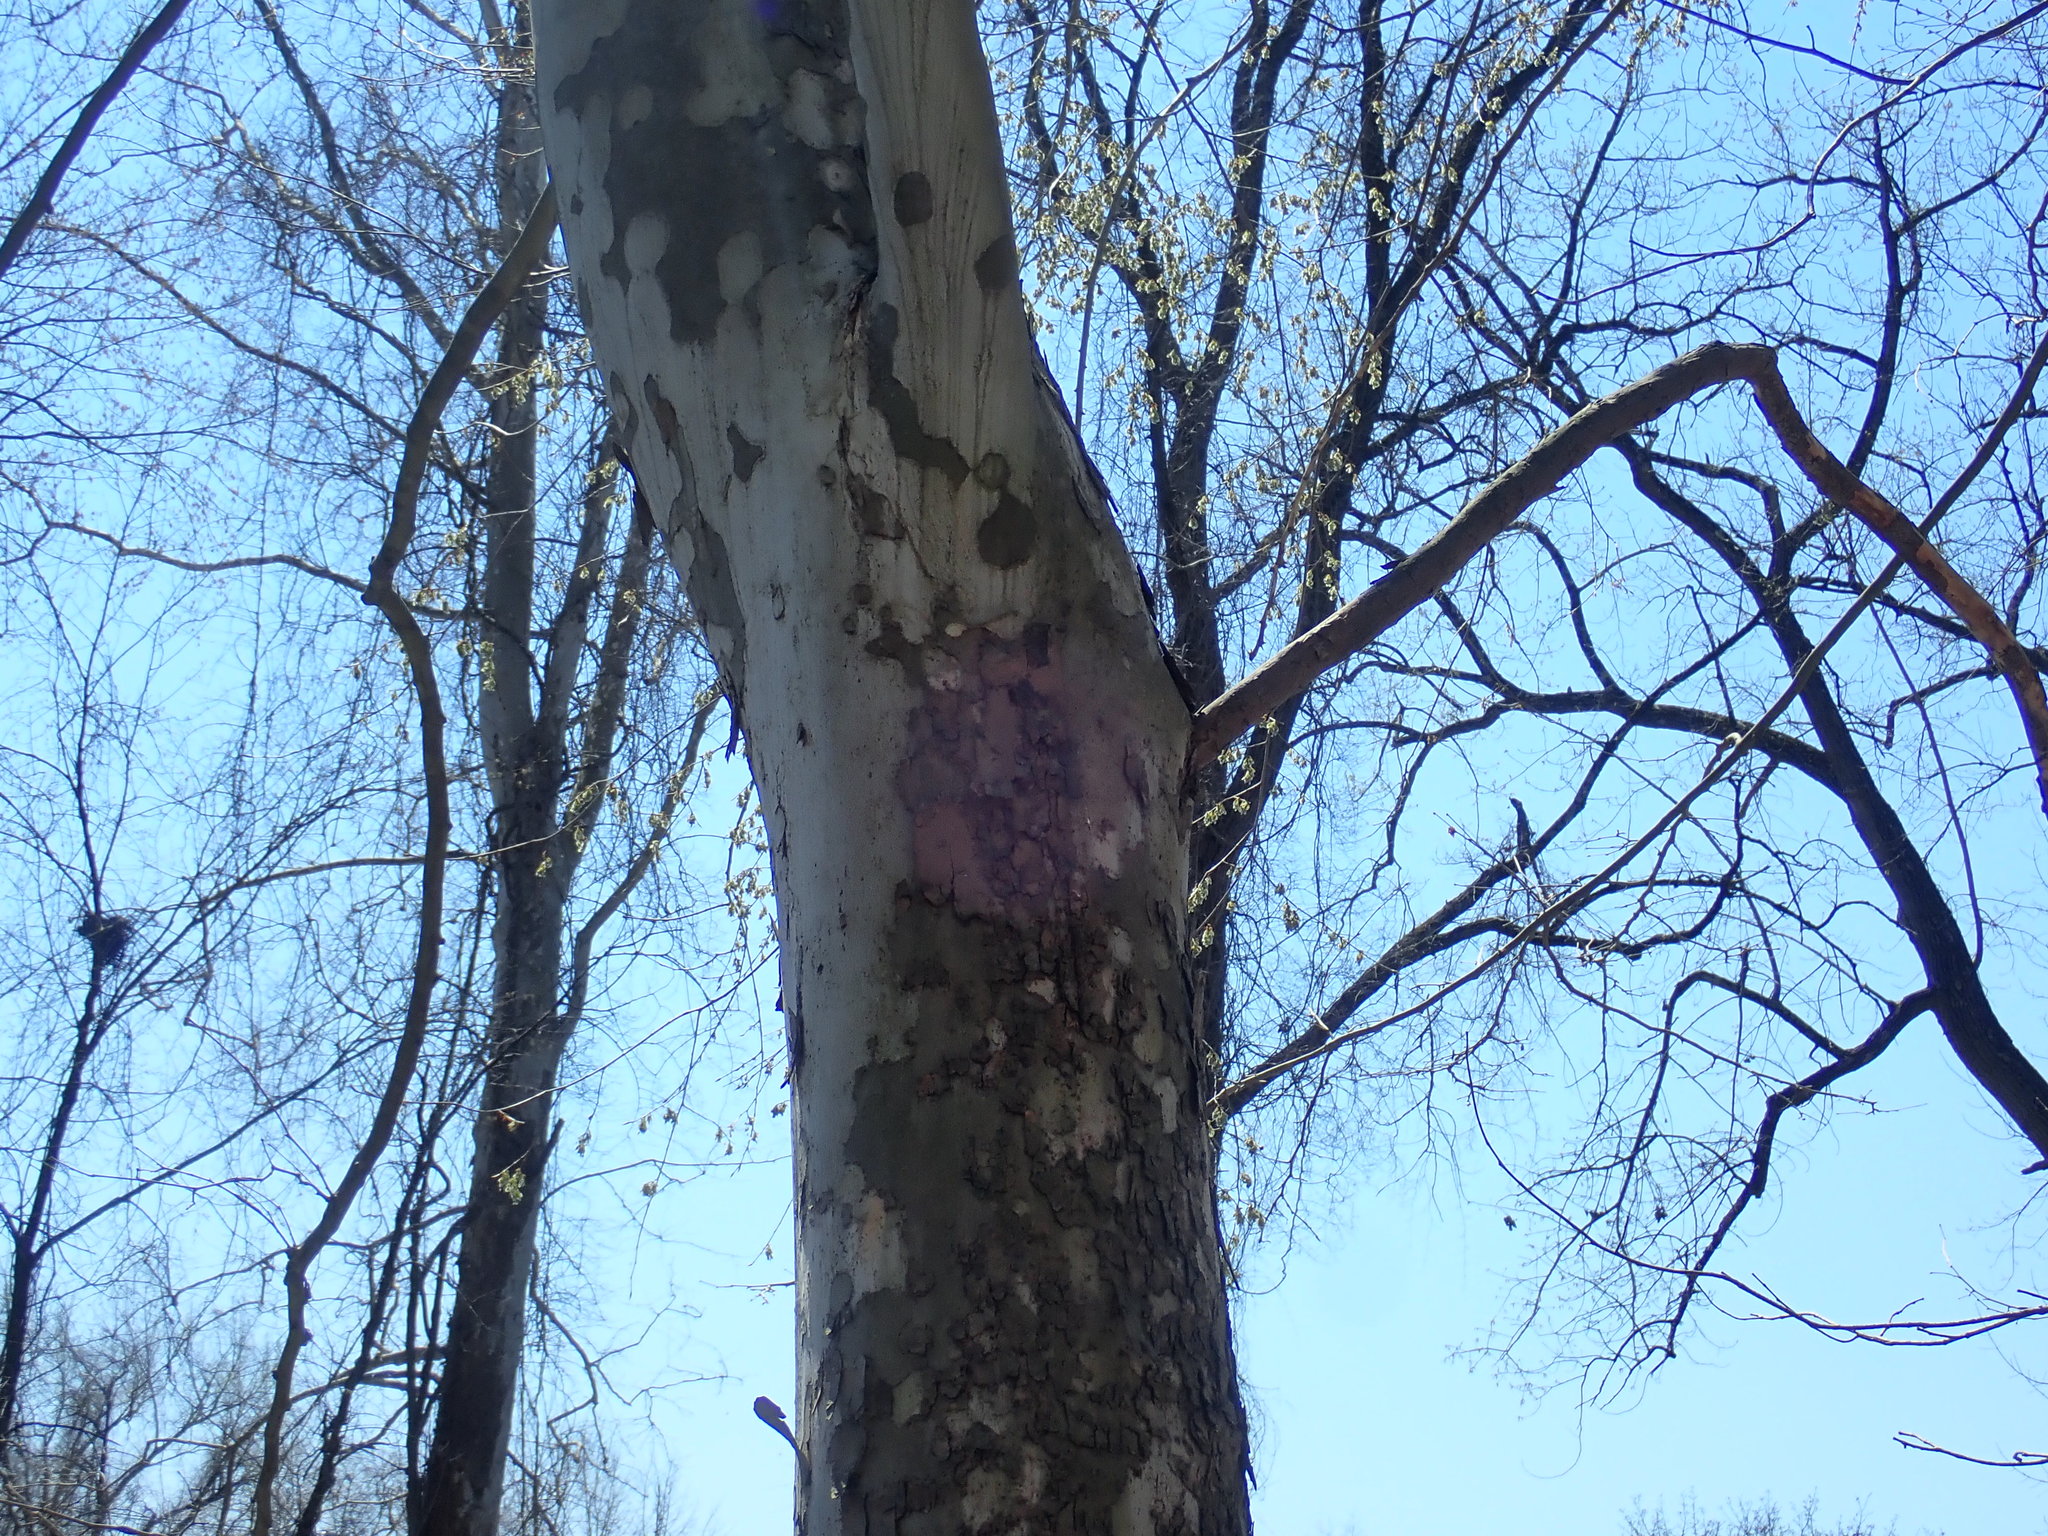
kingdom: Plantae
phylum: Tracheophyta
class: Magnoliopsida
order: Proteales
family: Platanaceae
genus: Platanus
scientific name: Platanus occidentalis
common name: American sycamore
